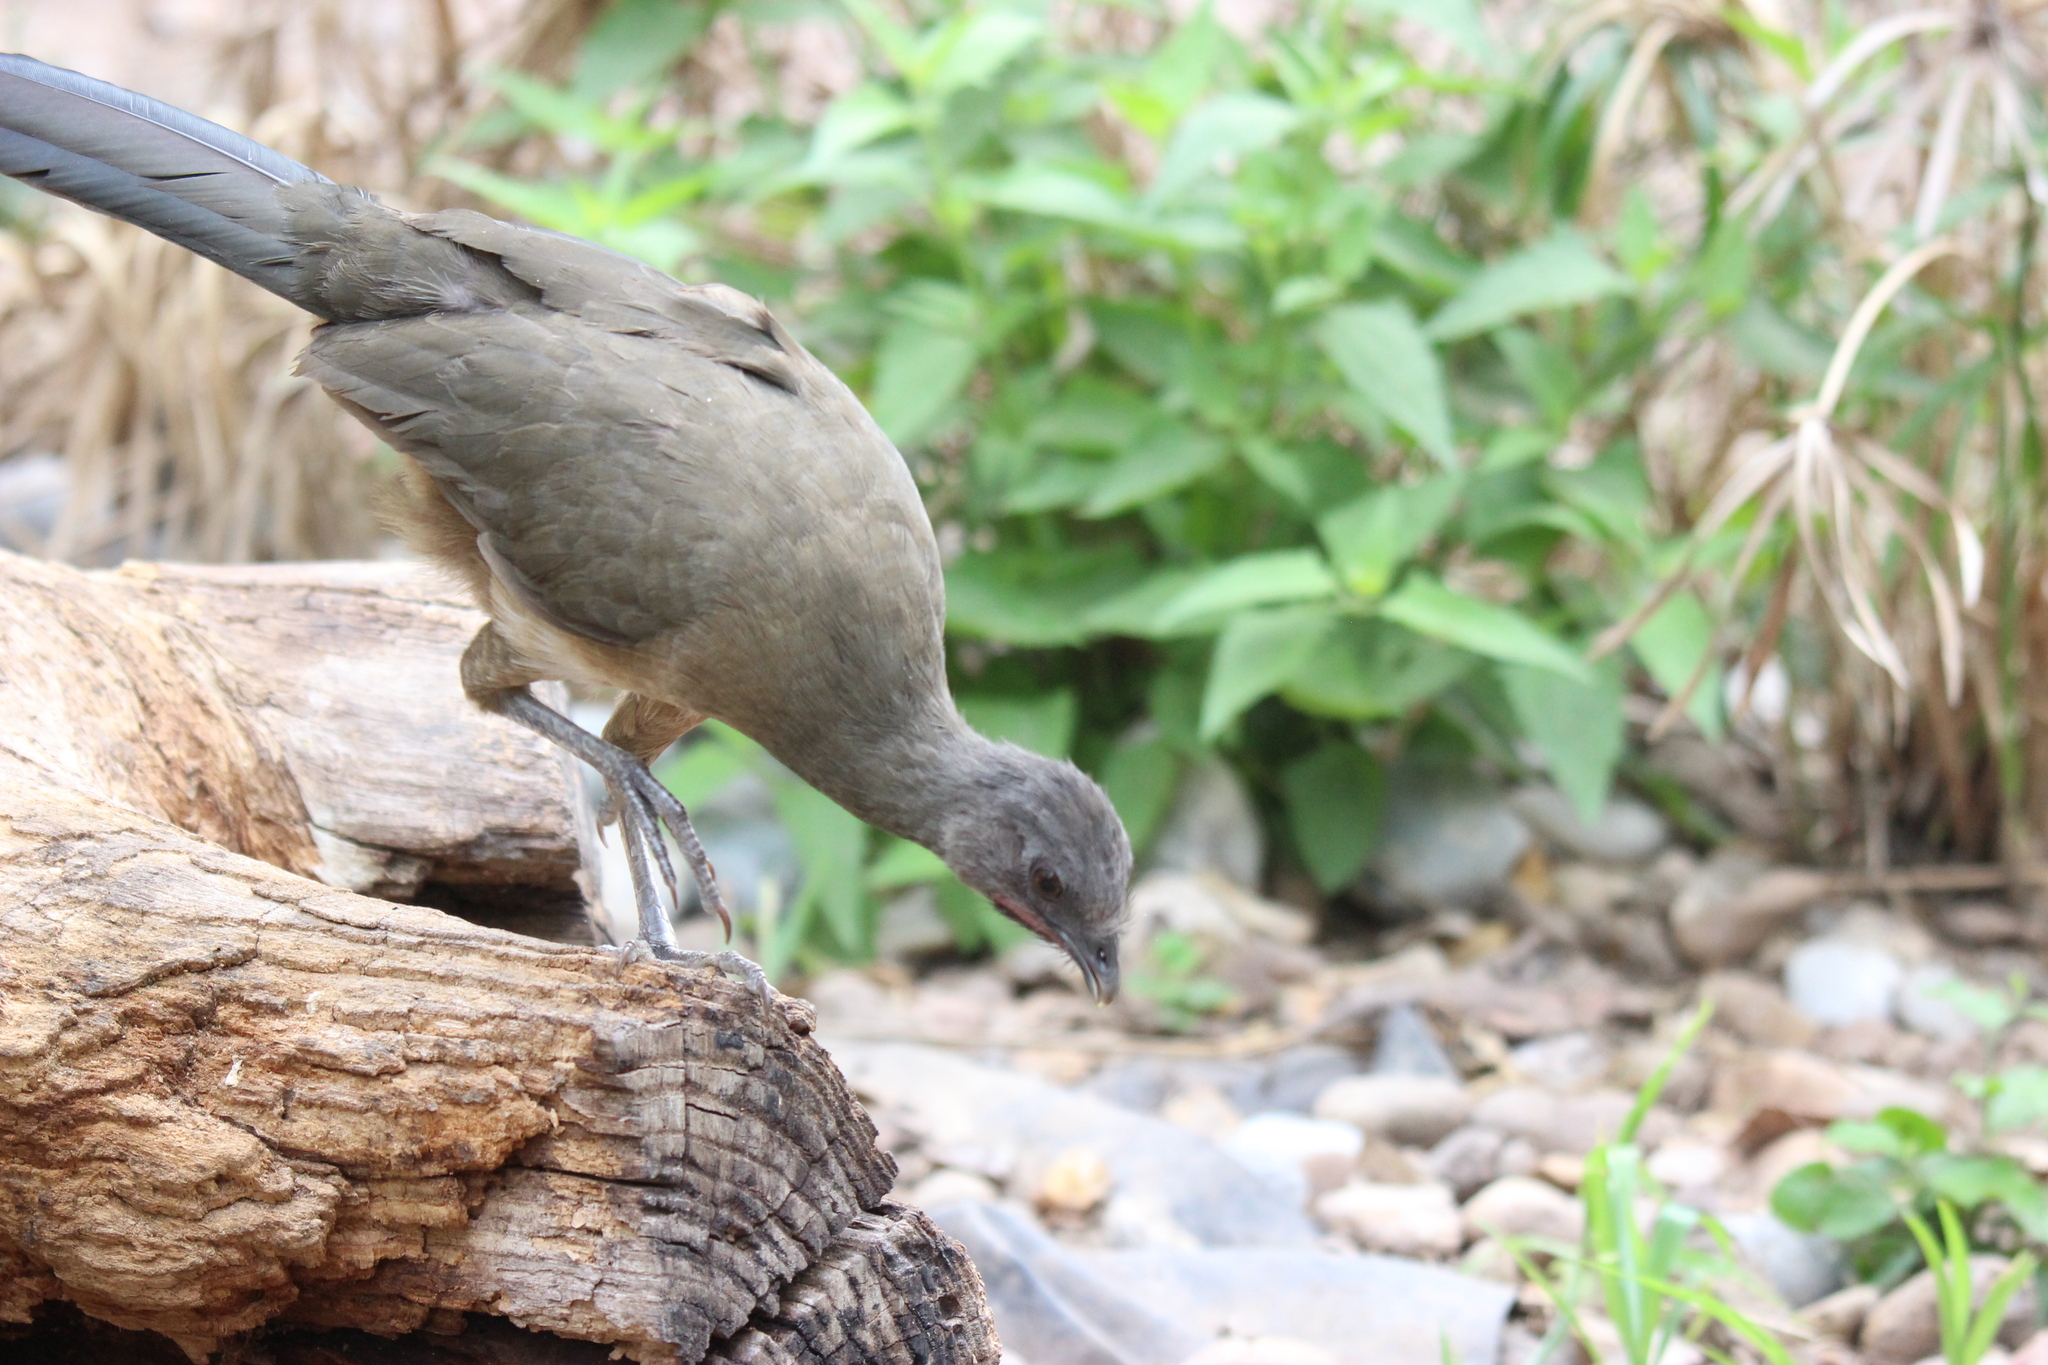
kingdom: Animalia
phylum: Chordata
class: Aves
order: Galliformes
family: Cracidae
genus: Ortalis
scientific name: Ortalis vetula
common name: Plain chachalaca
